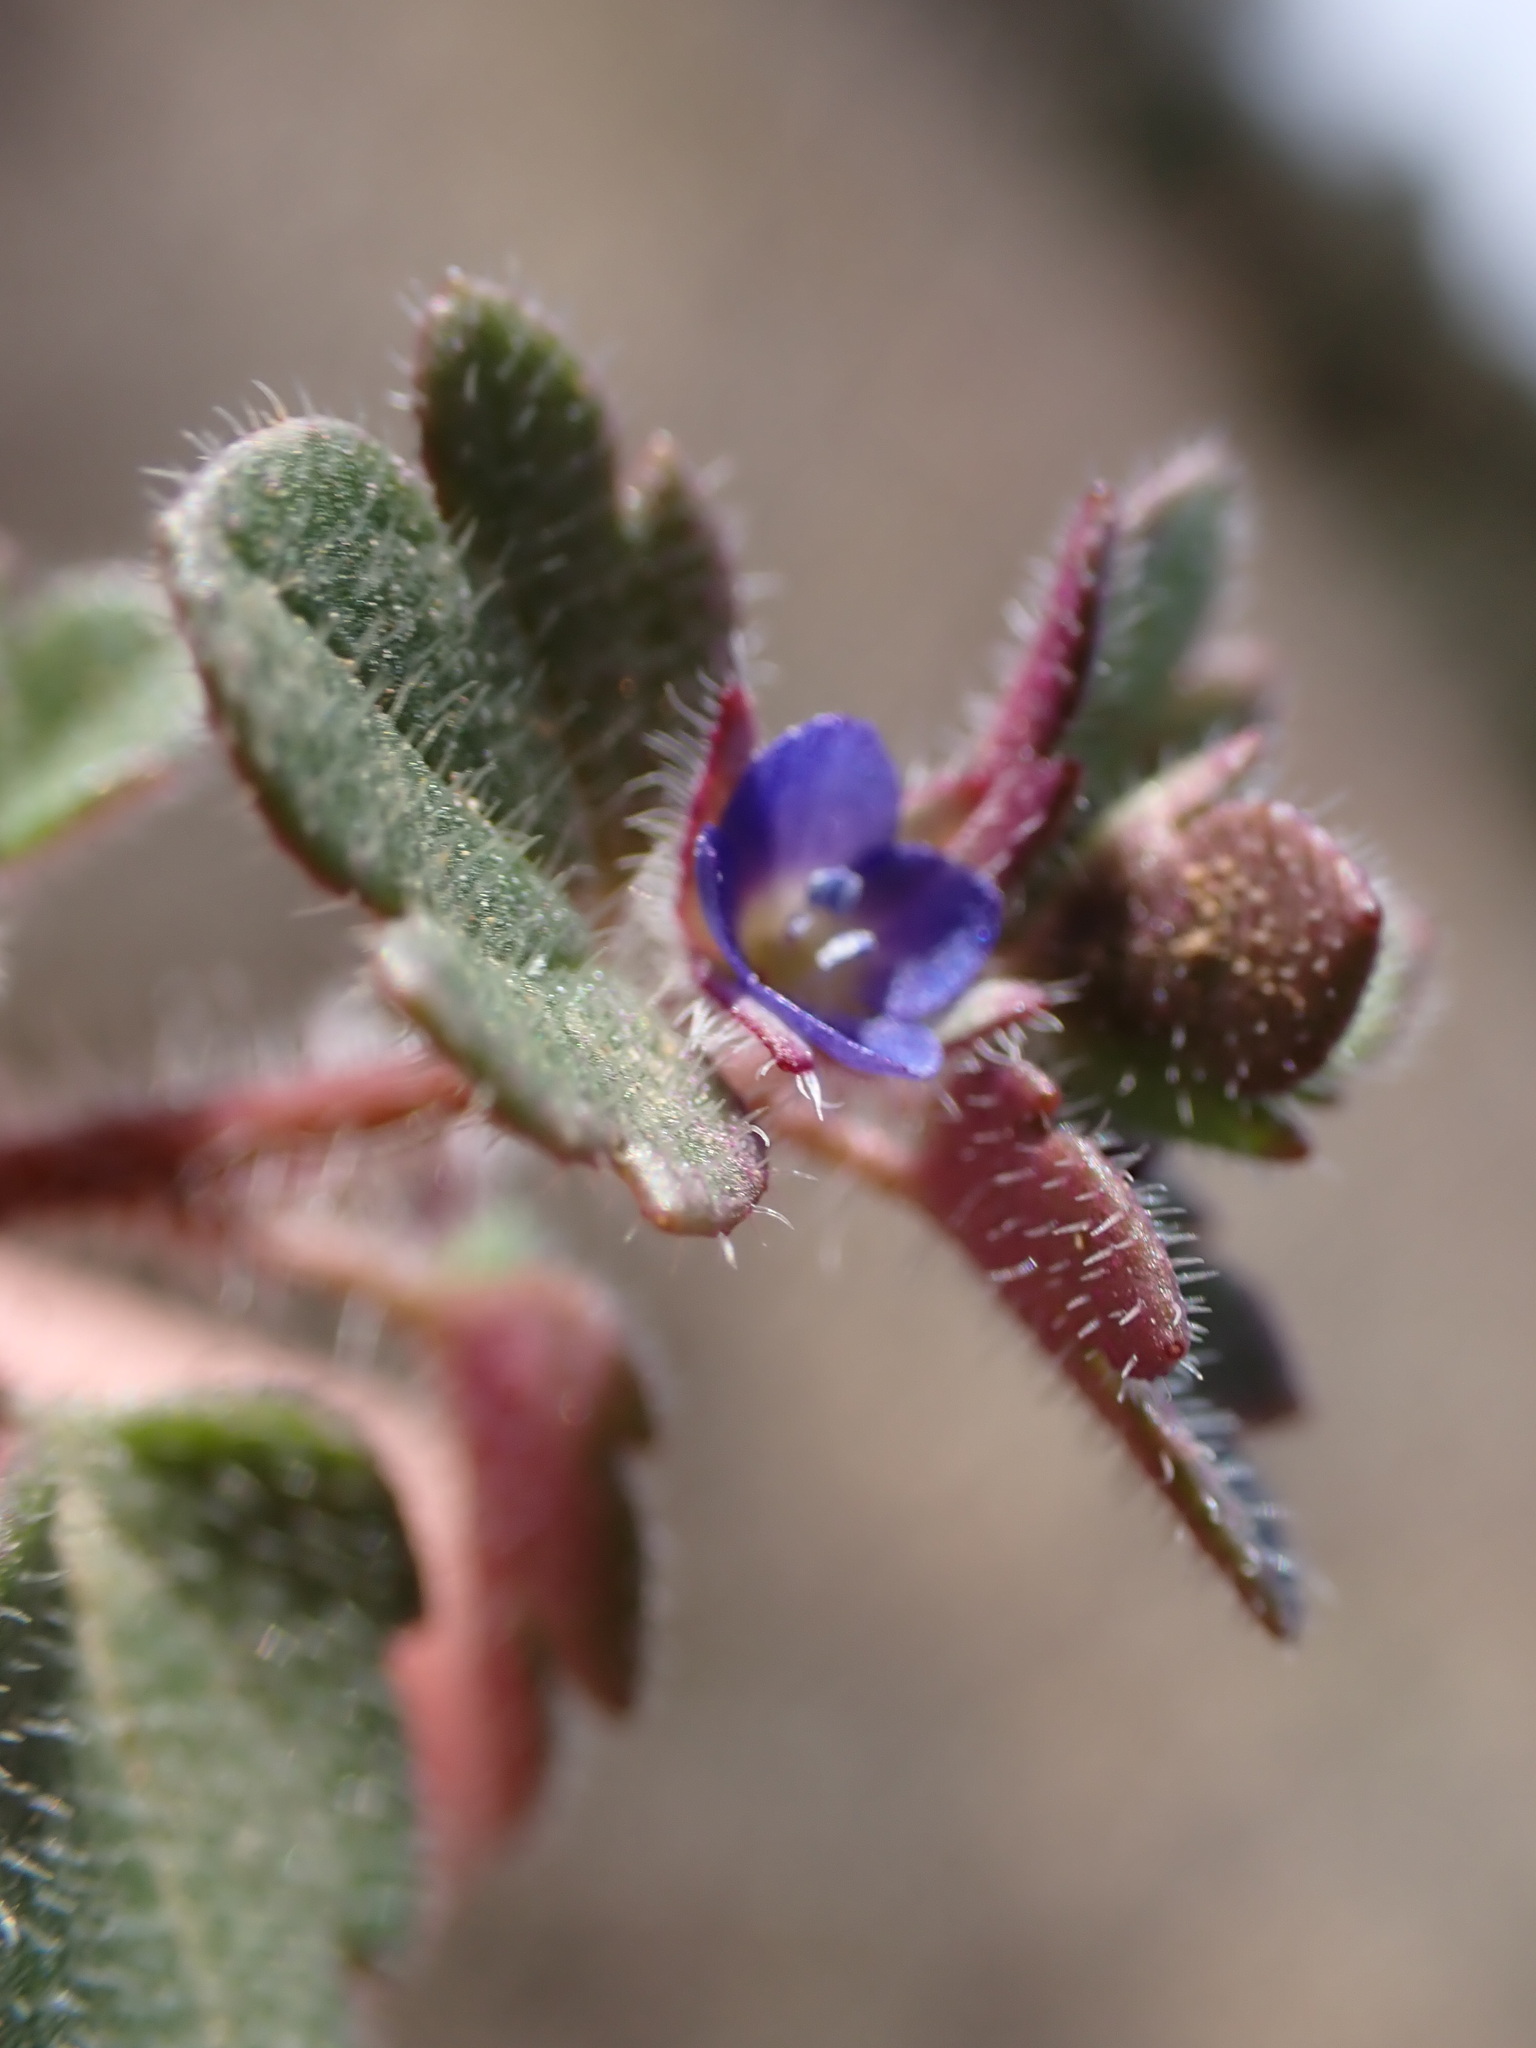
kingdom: Plantae
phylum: Tracheophyta
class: Magnoliopsida
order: Lamiales
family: Plantaginaceae
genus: Veronica
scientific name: Veronica hederifolia
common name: Ivy-leaved speedwell
